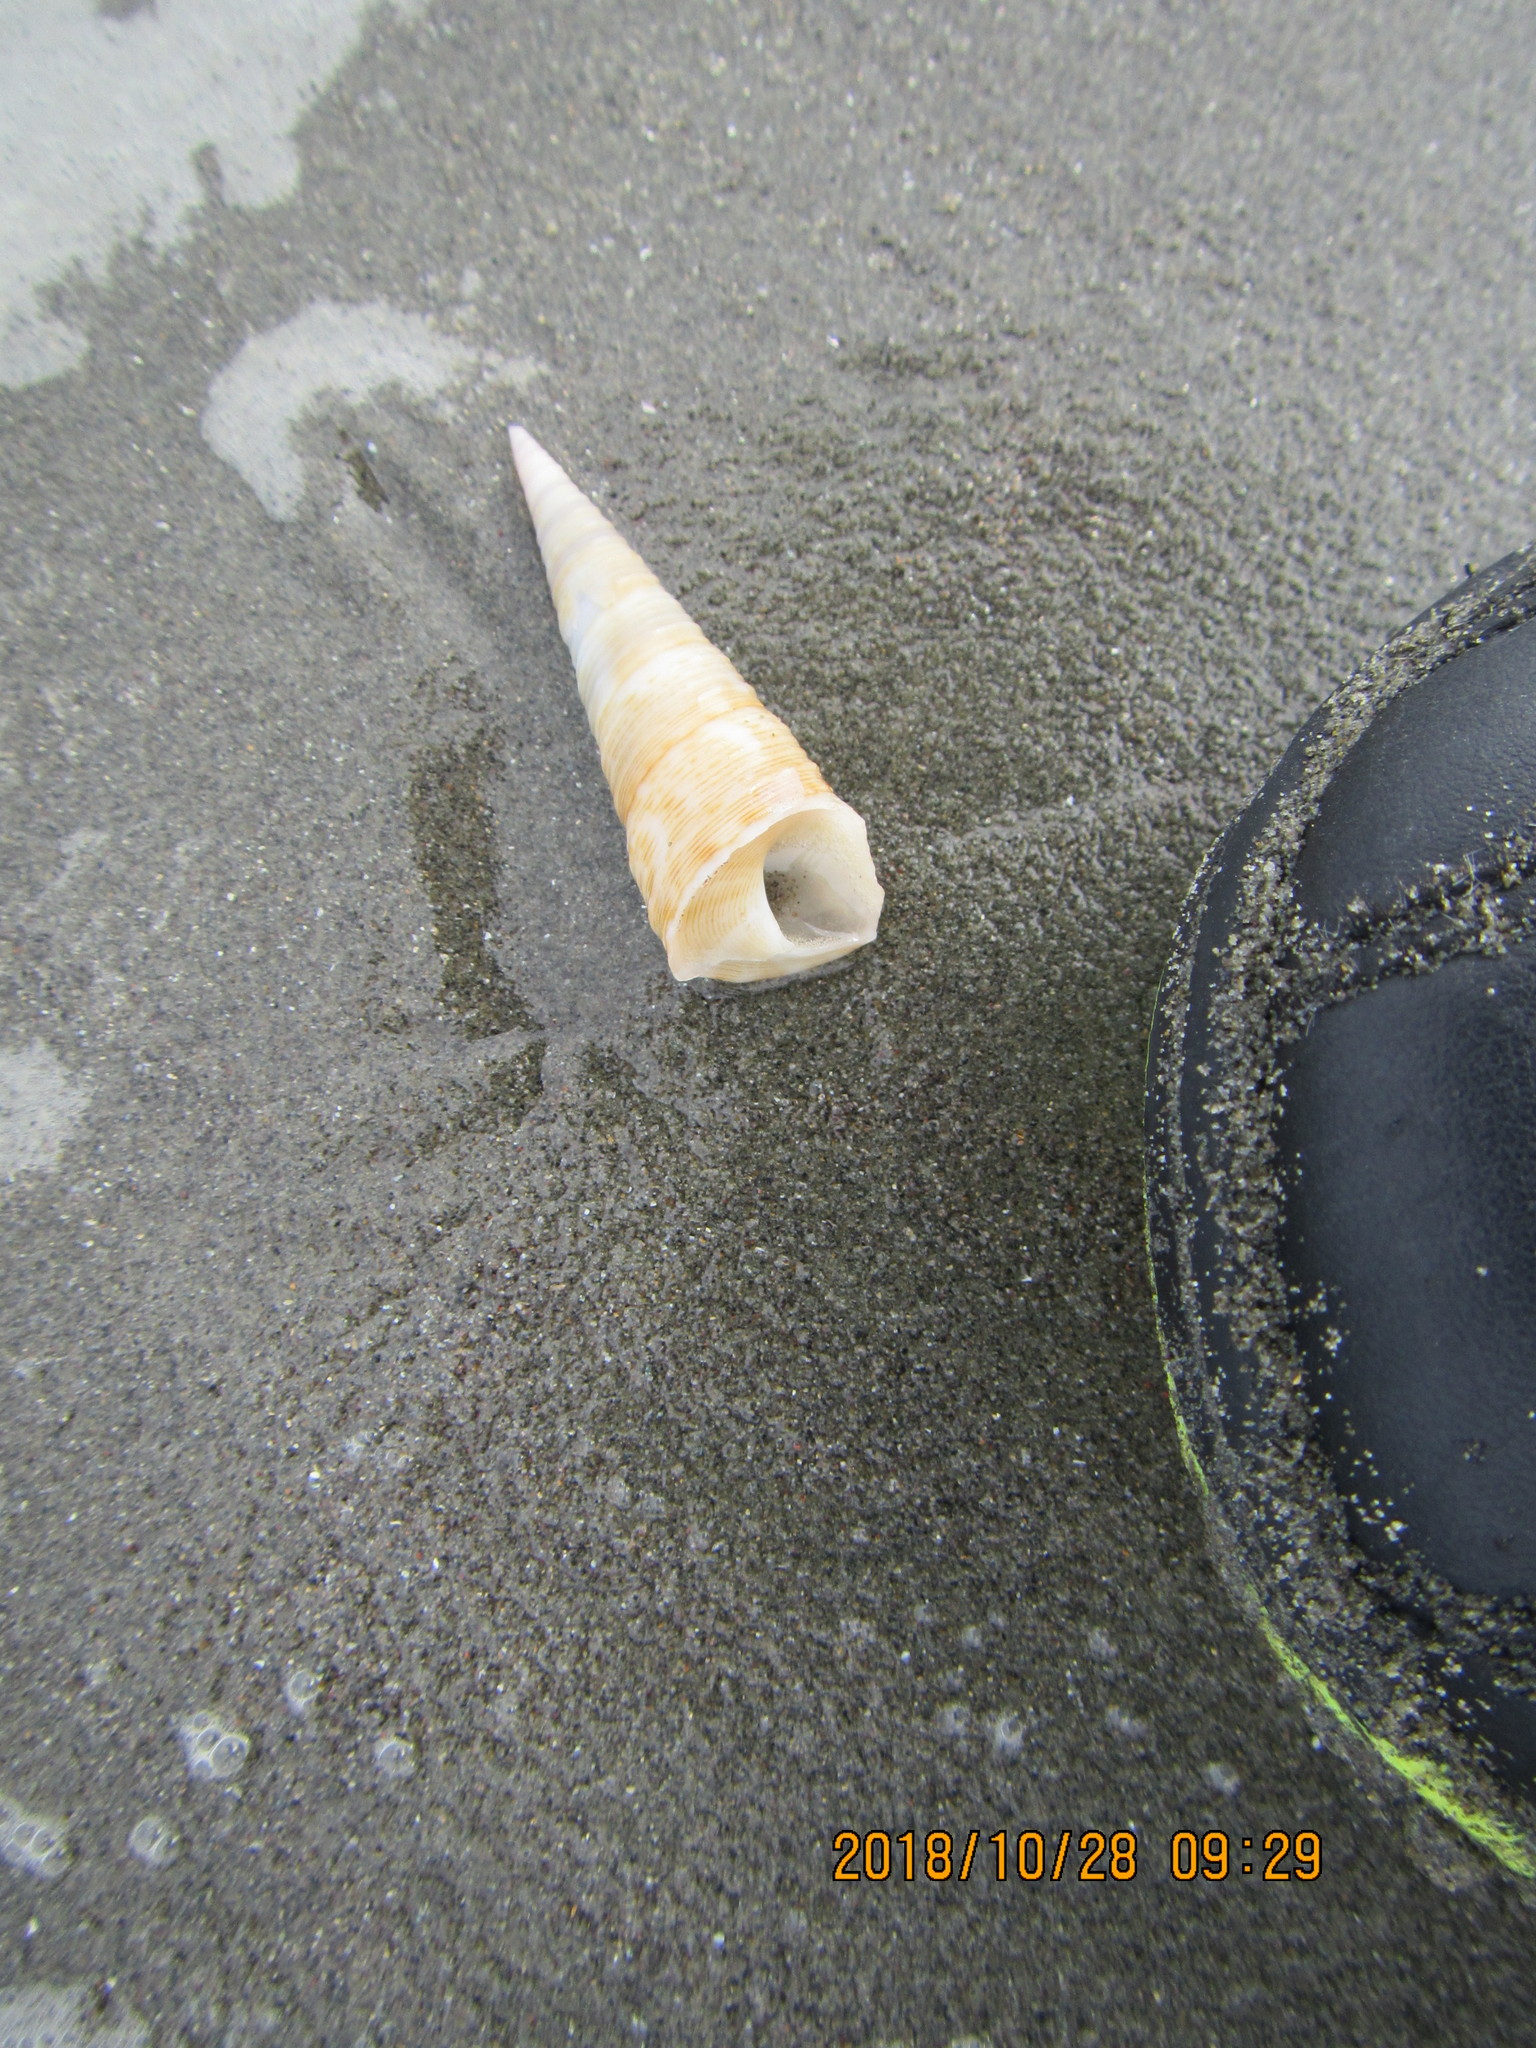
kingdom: Animalia
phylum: Mollusca
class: Gastropoda
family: Turritellidae
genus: Maoricolpus
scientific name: Maoricolpus roseus
